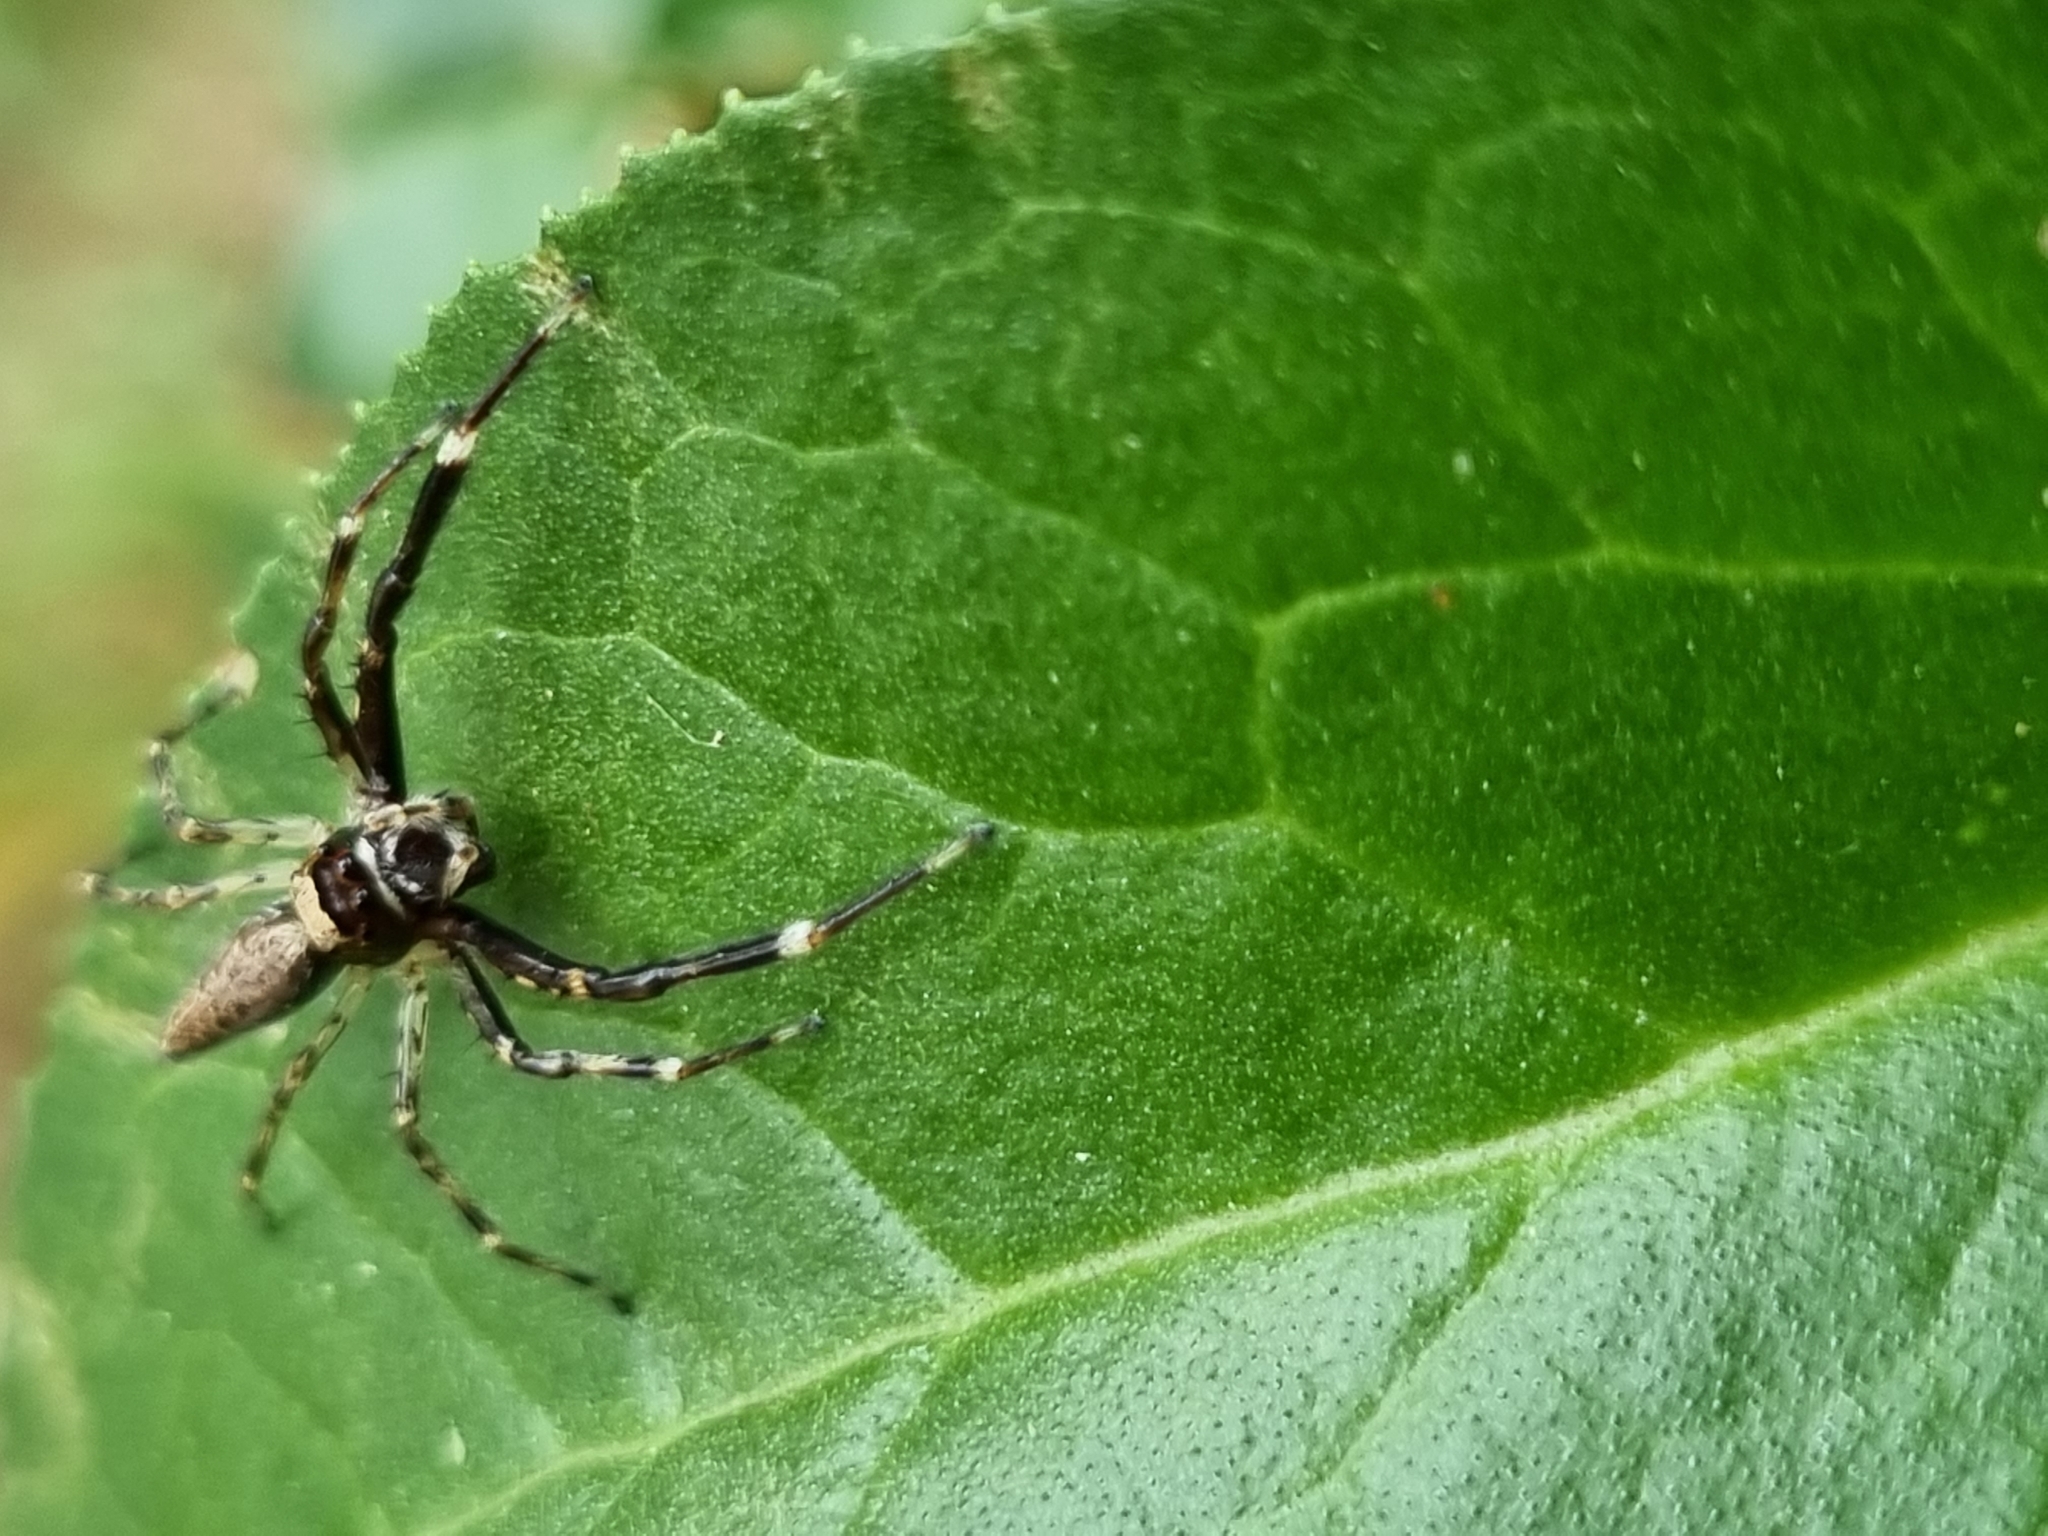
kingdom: Animalia
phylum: Arthropoda
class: Arachnida
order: Araneae
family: Salticidae
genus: Helpis
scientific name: Helpis minitabunda
